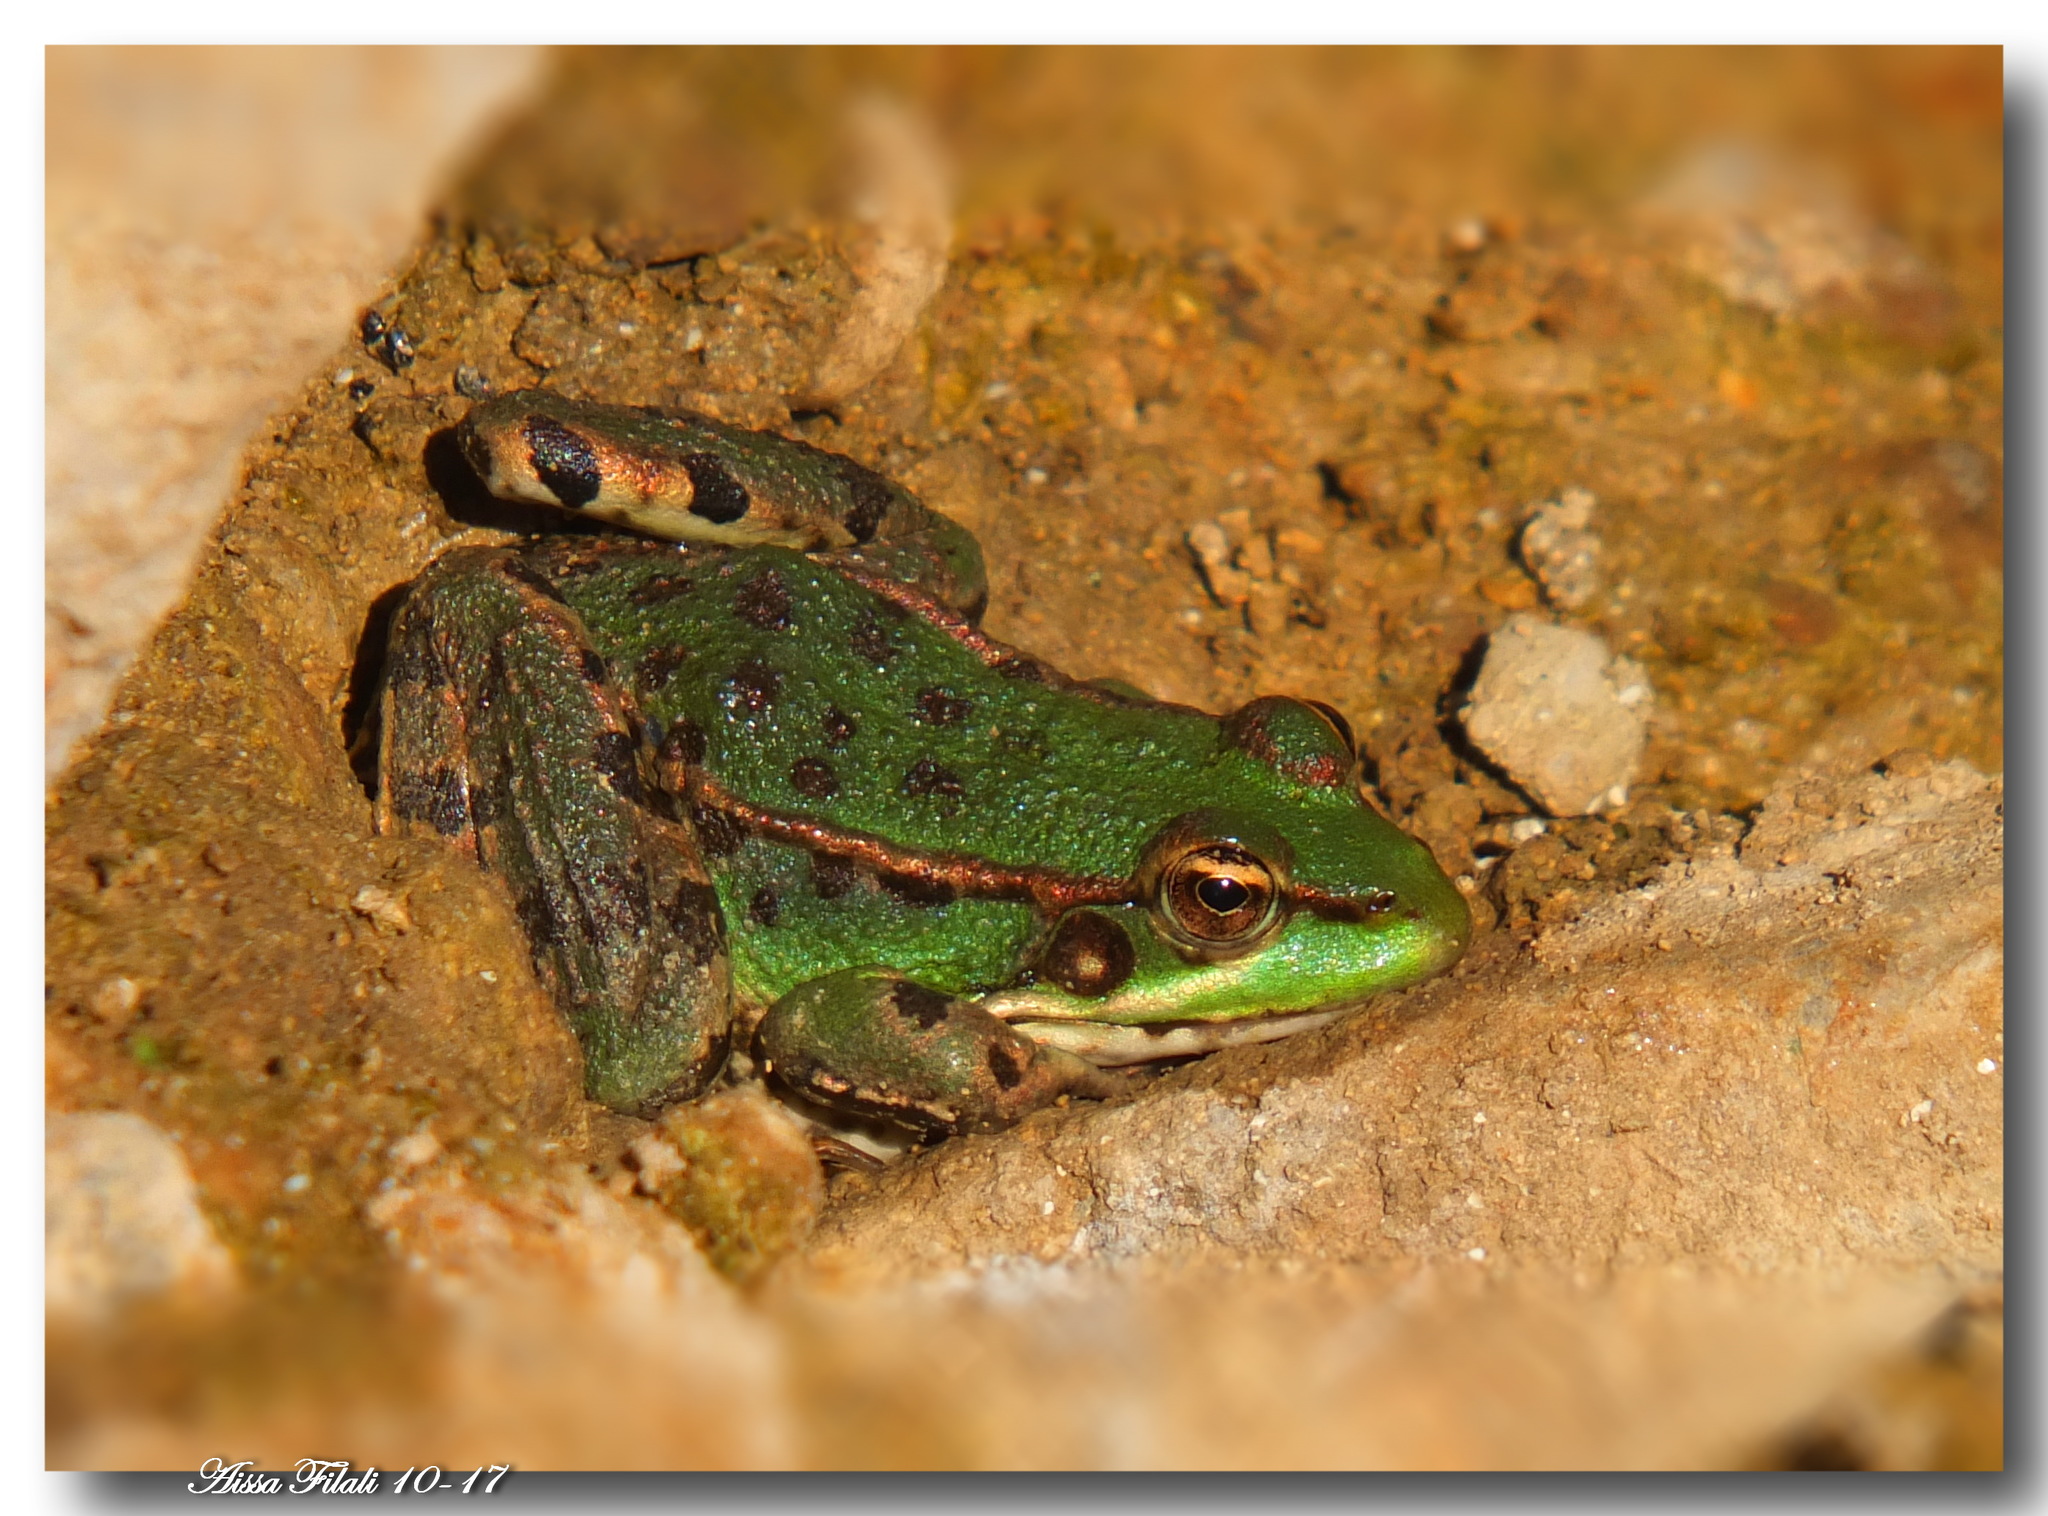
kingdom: Animalia
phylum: Chordata
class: Amphibia
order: Anura
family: Ranidae
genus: Pelophylax
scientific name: Pelophylax saharicus
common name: Sahara frog
